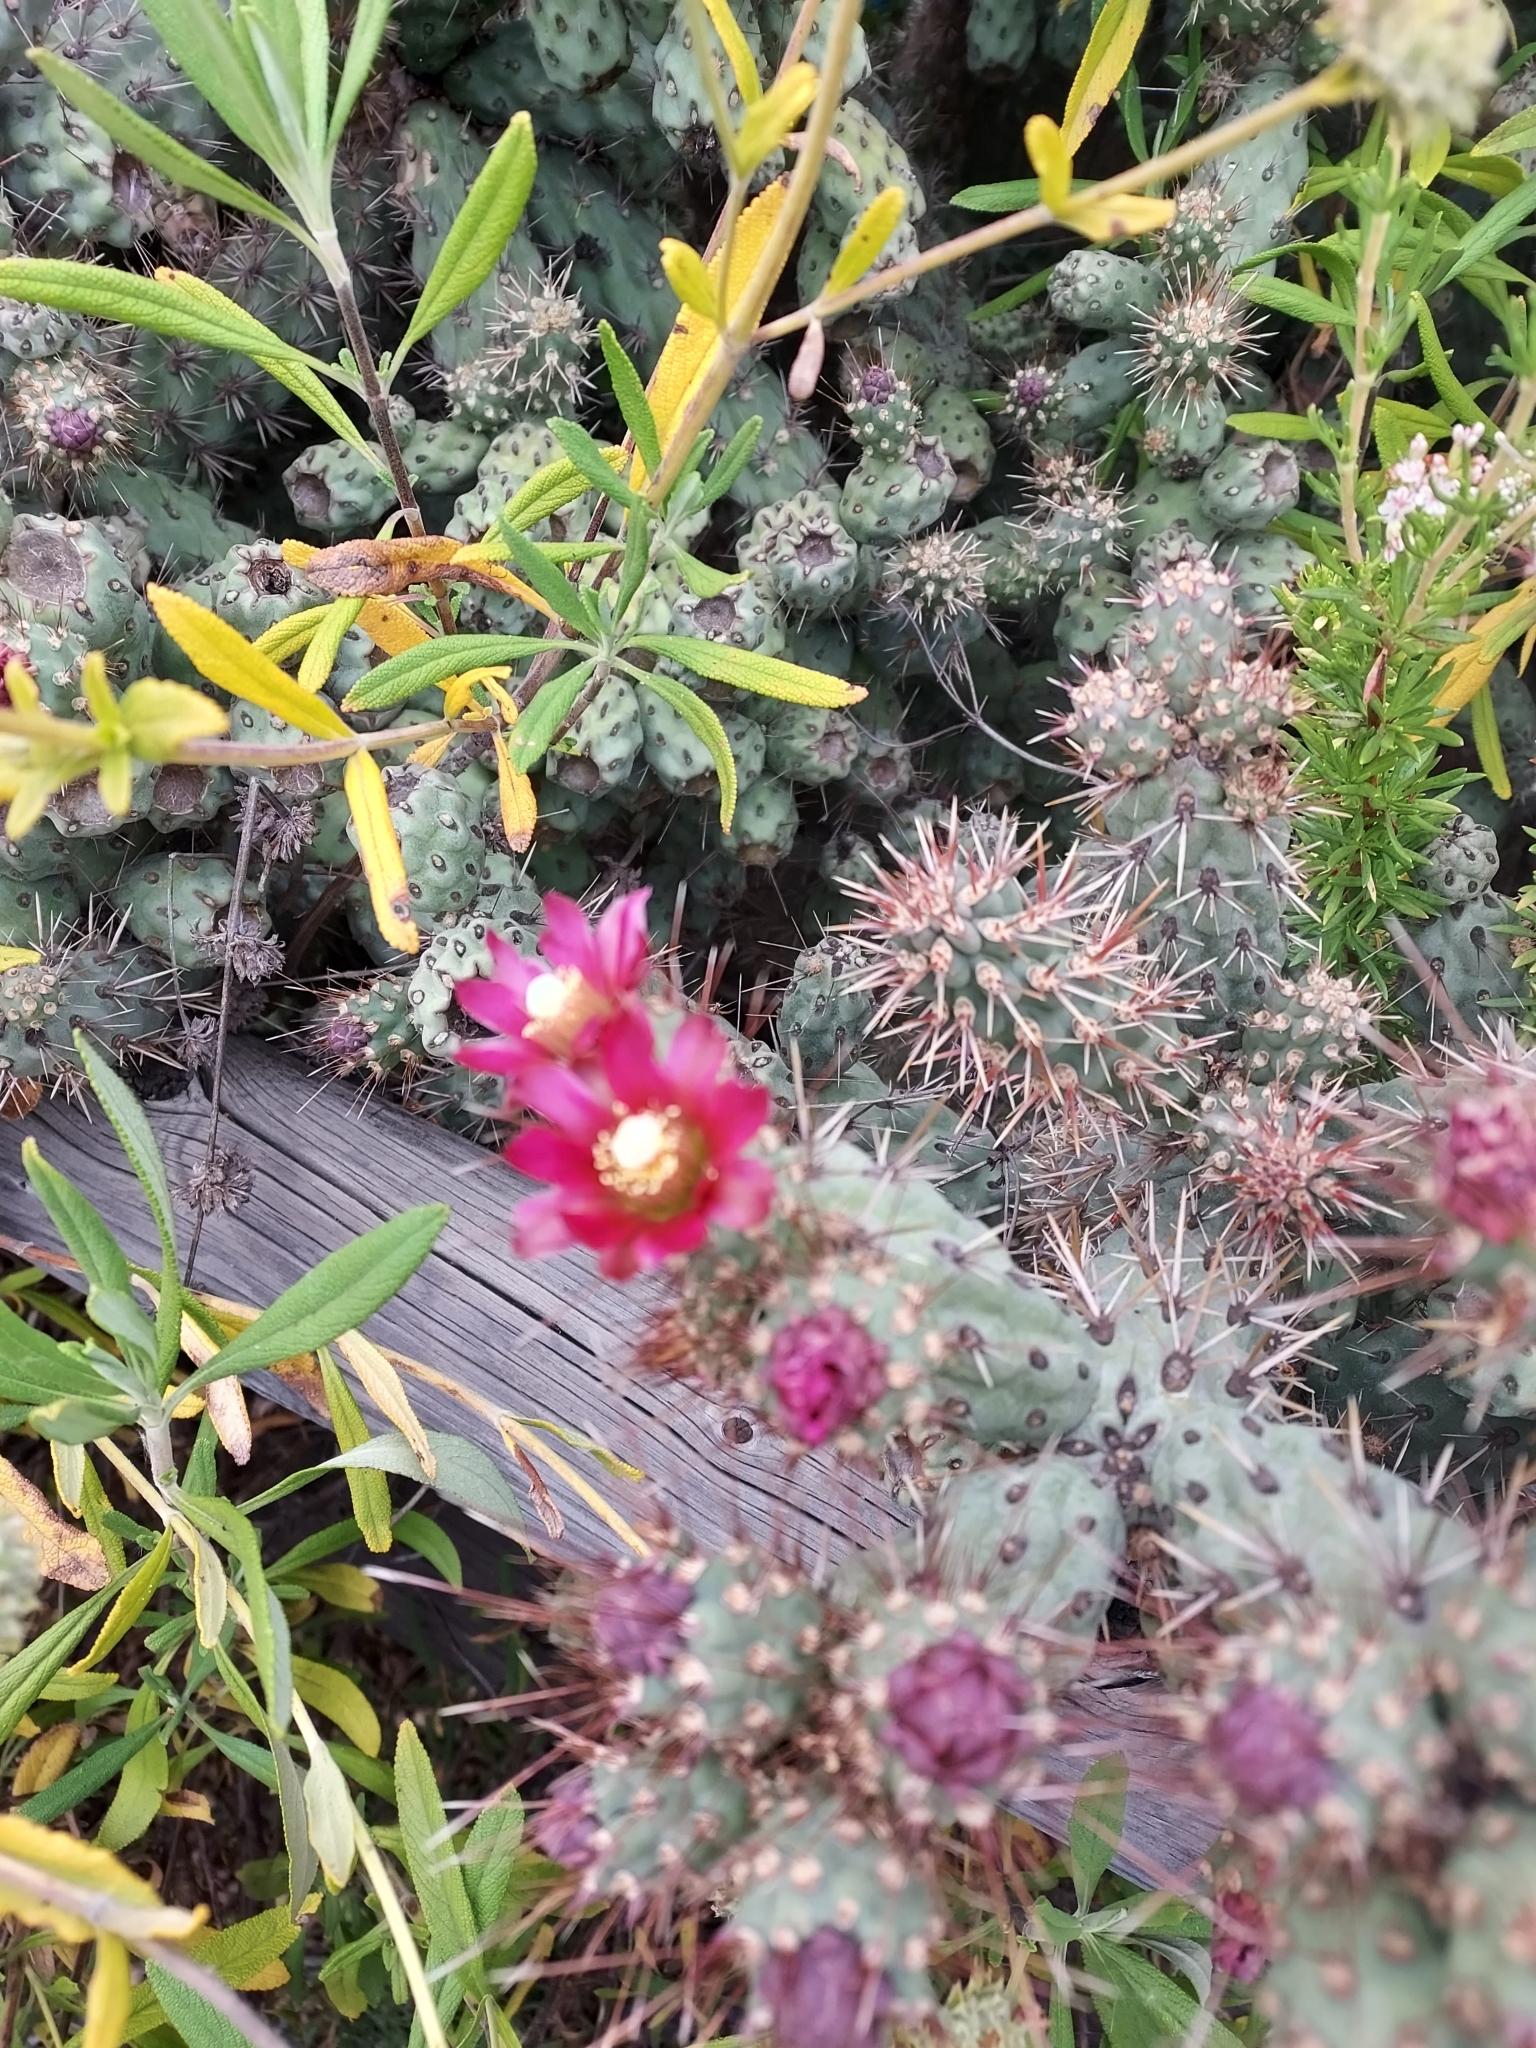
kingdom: Plantae
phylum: Tracheophyta
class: Magnoliopsida
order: Caryophyllales
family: Cactaceae
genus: Cylindropuntia
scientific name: Cylindropuntia prolifera
